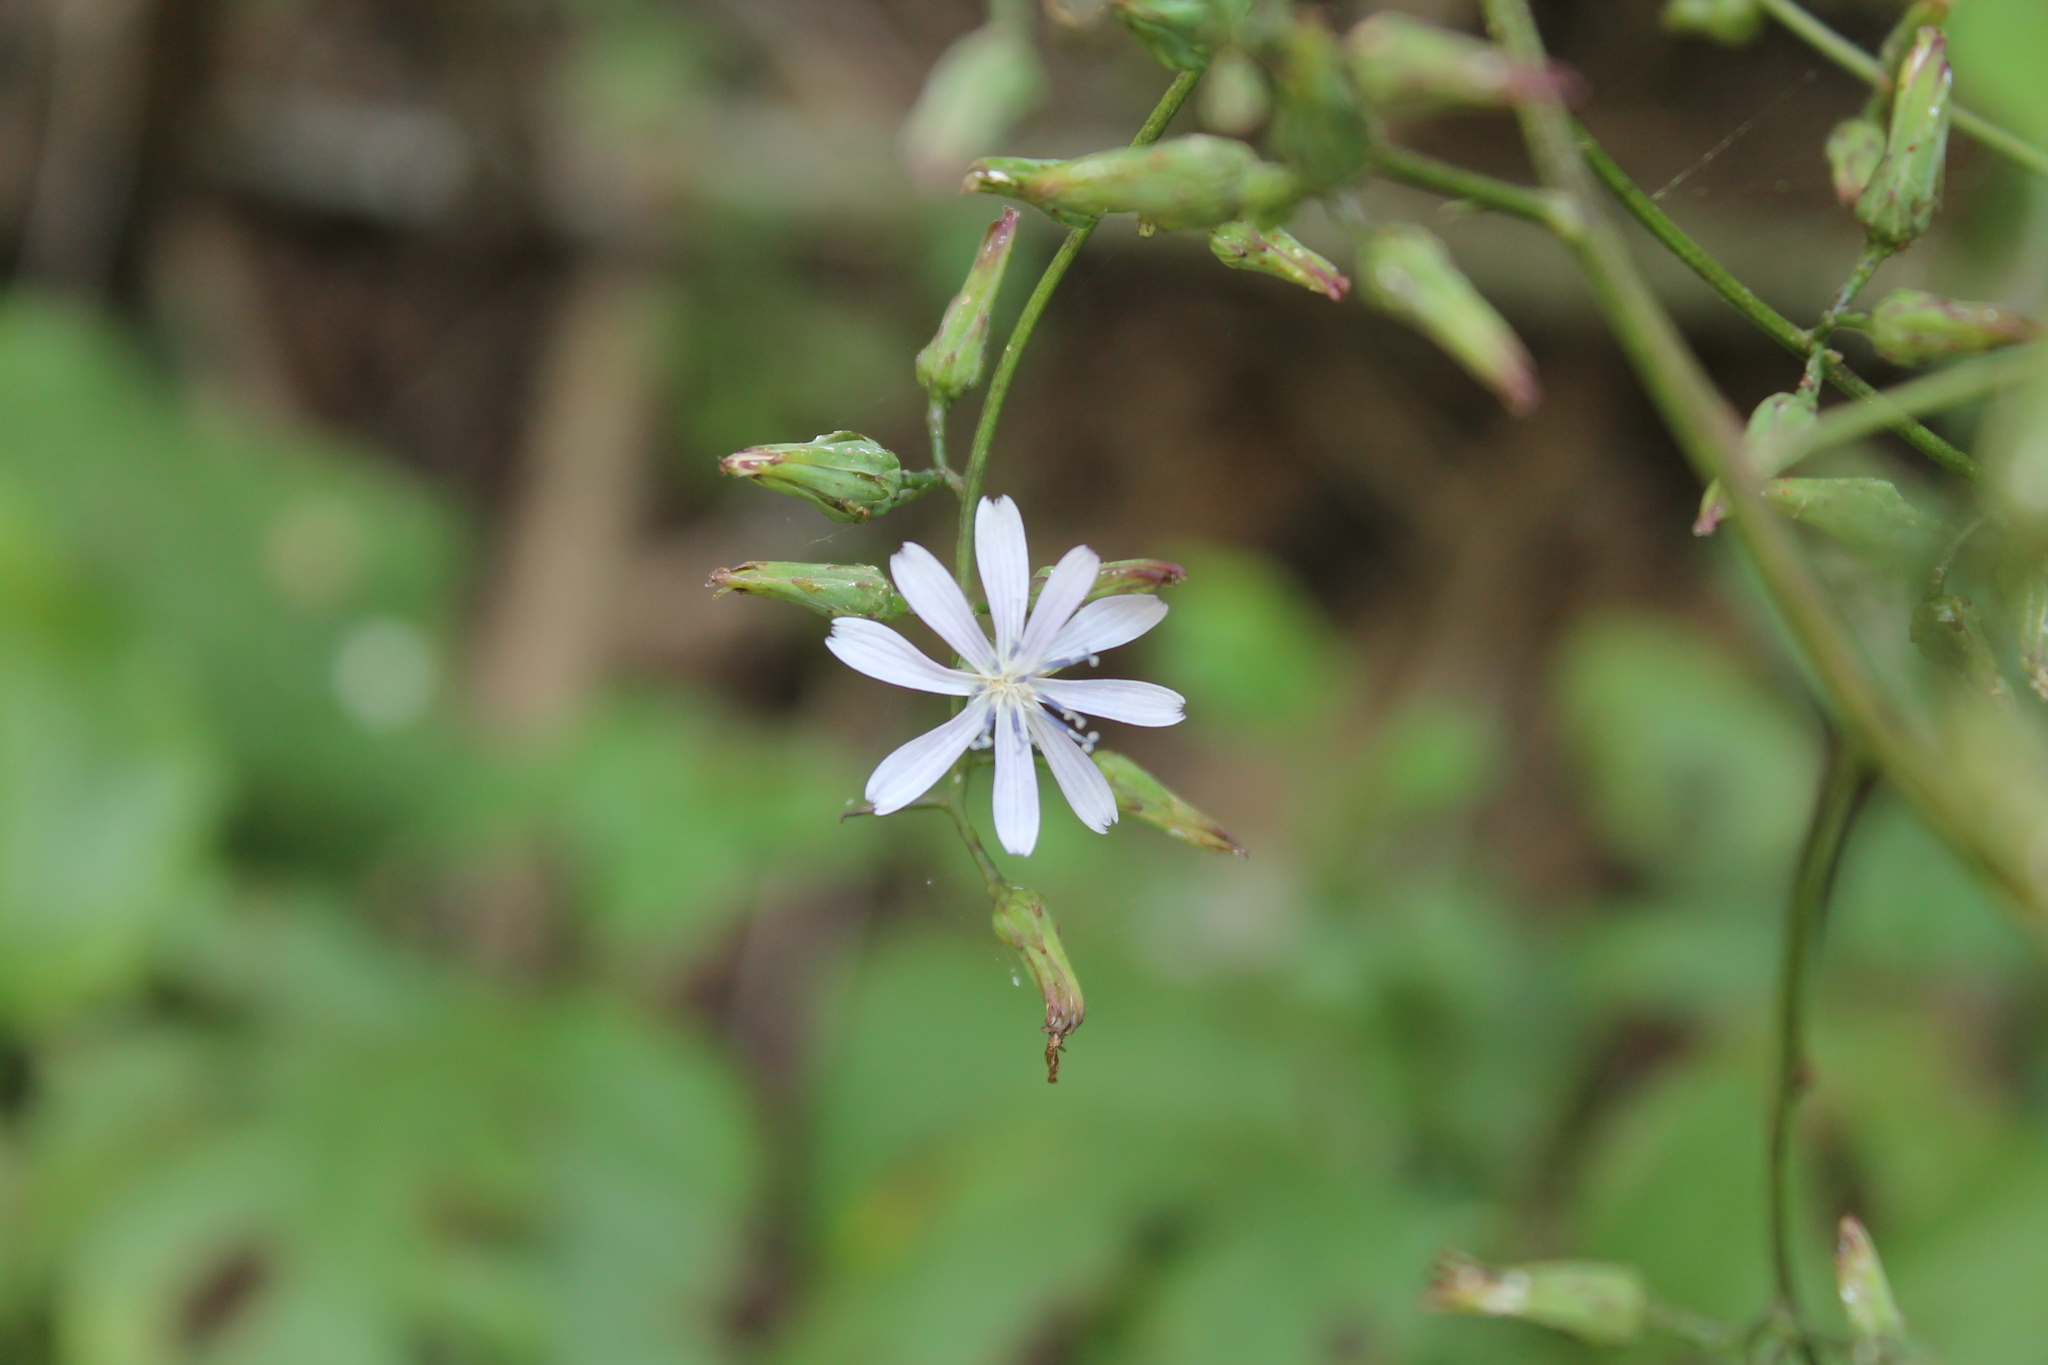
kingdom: Plantae
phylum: Tracheophyta
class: Magnoliopsida
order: Asterales
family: Asteraceae
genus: Lactuca
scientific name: Lactuca floridana
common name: Woodland lettuce
